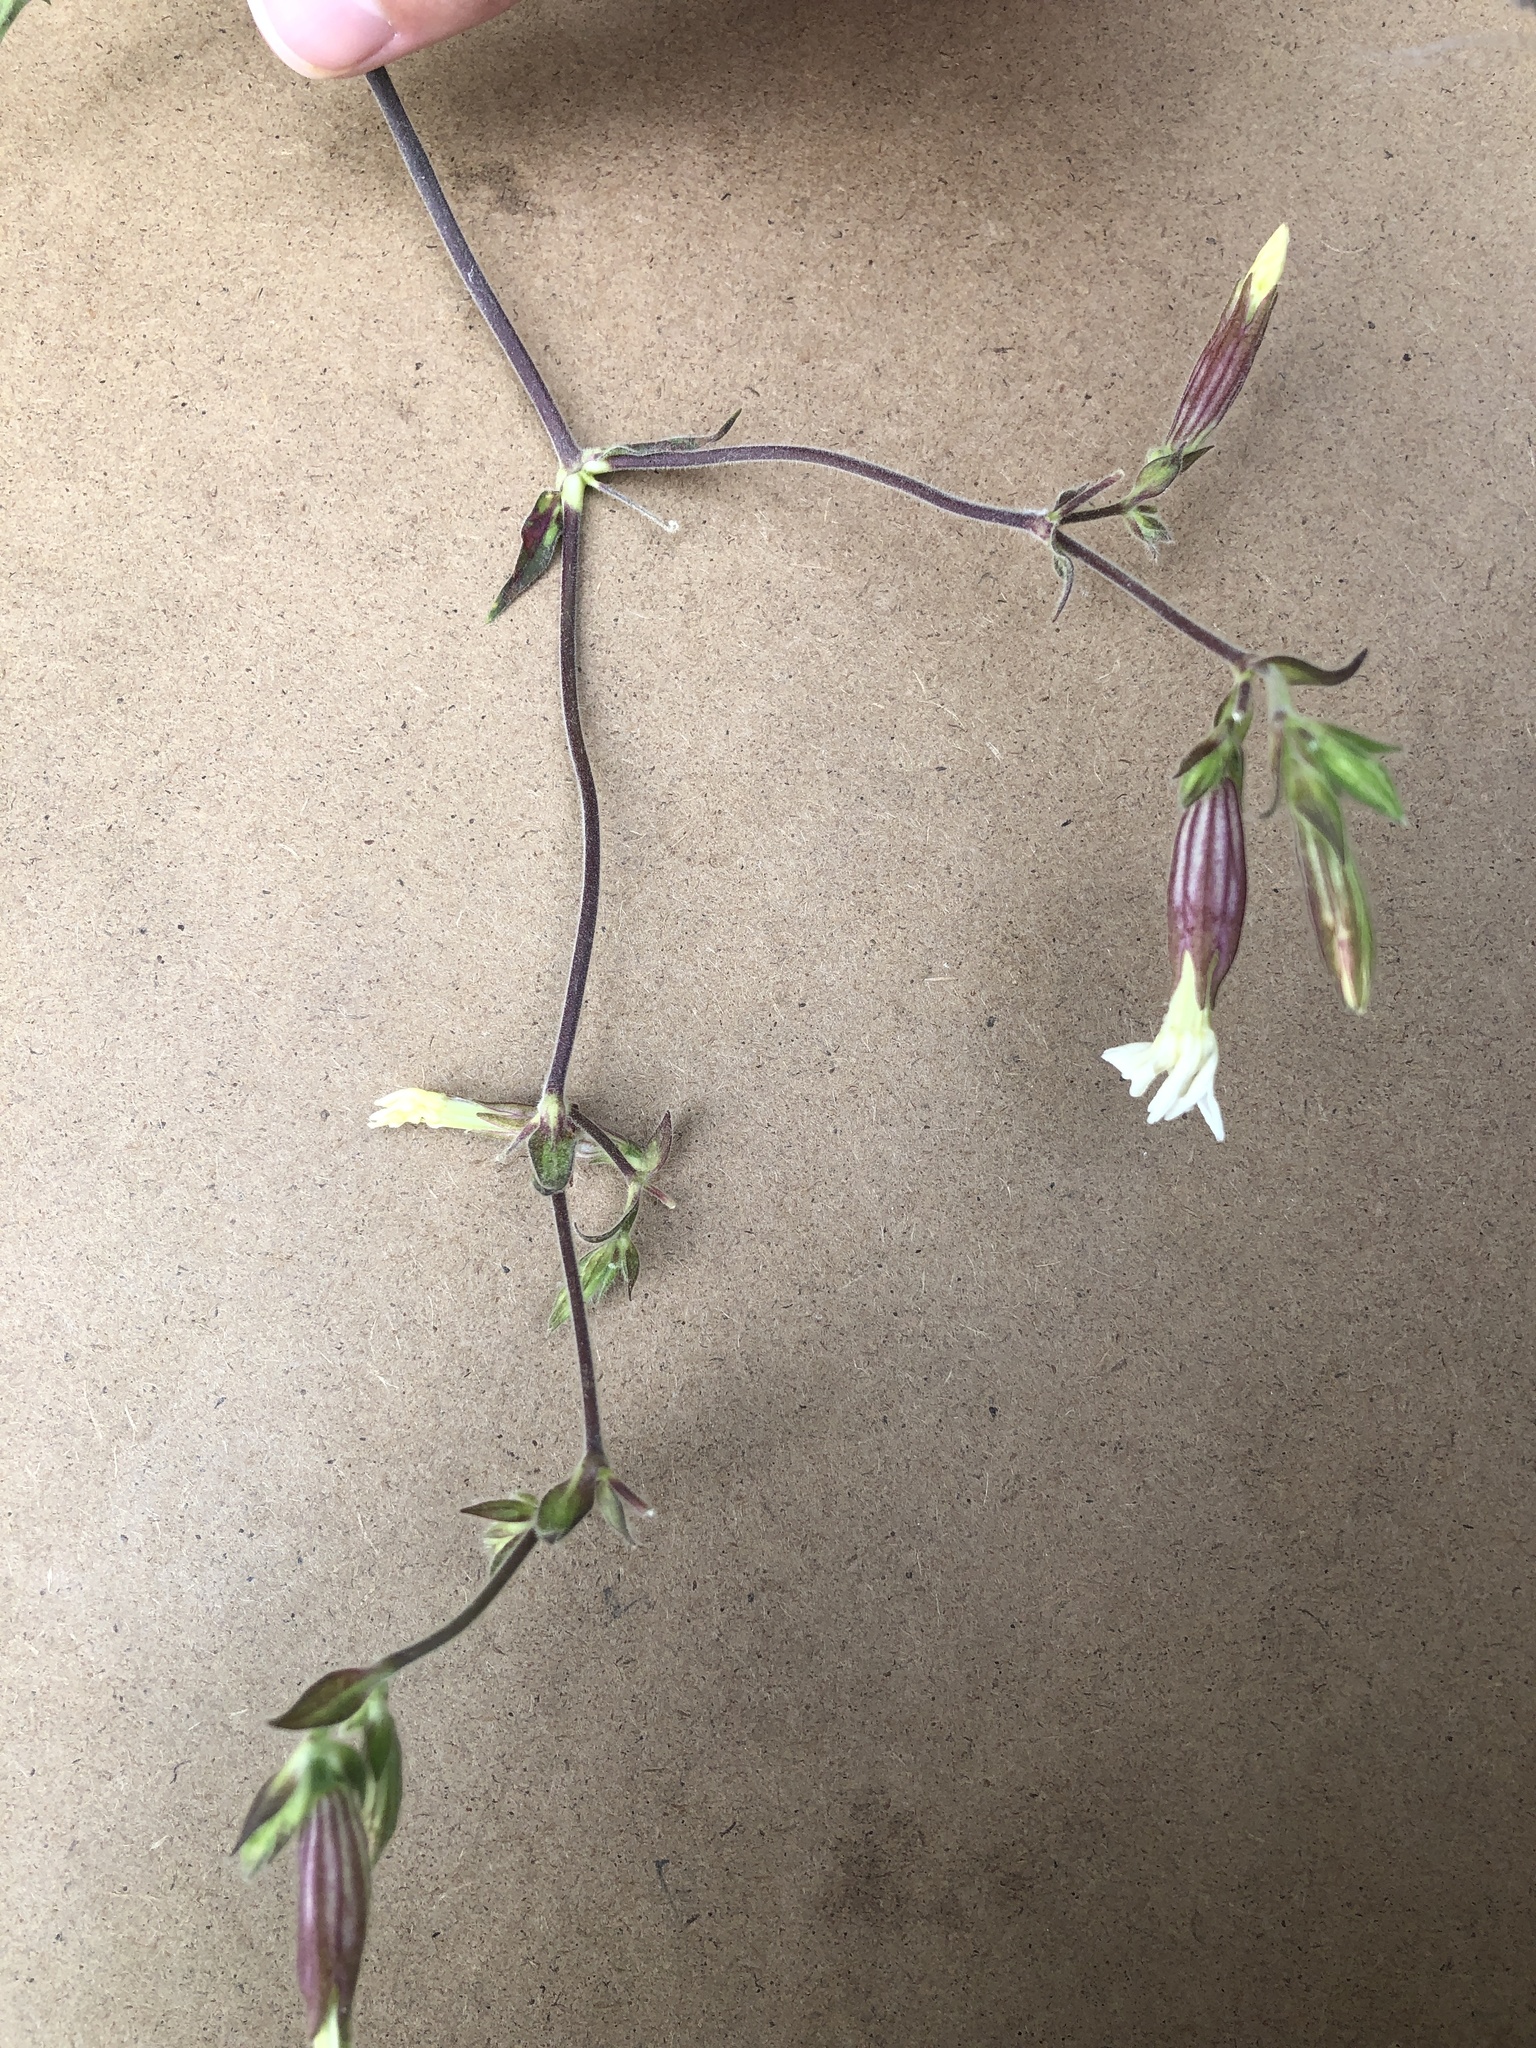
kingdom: Plantae
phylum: Tracheophyta
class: Magnoliopsida
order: Caryophyllales
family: Caryophyllaceae
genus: Silene
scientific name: Silene latifolia
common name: White campion
